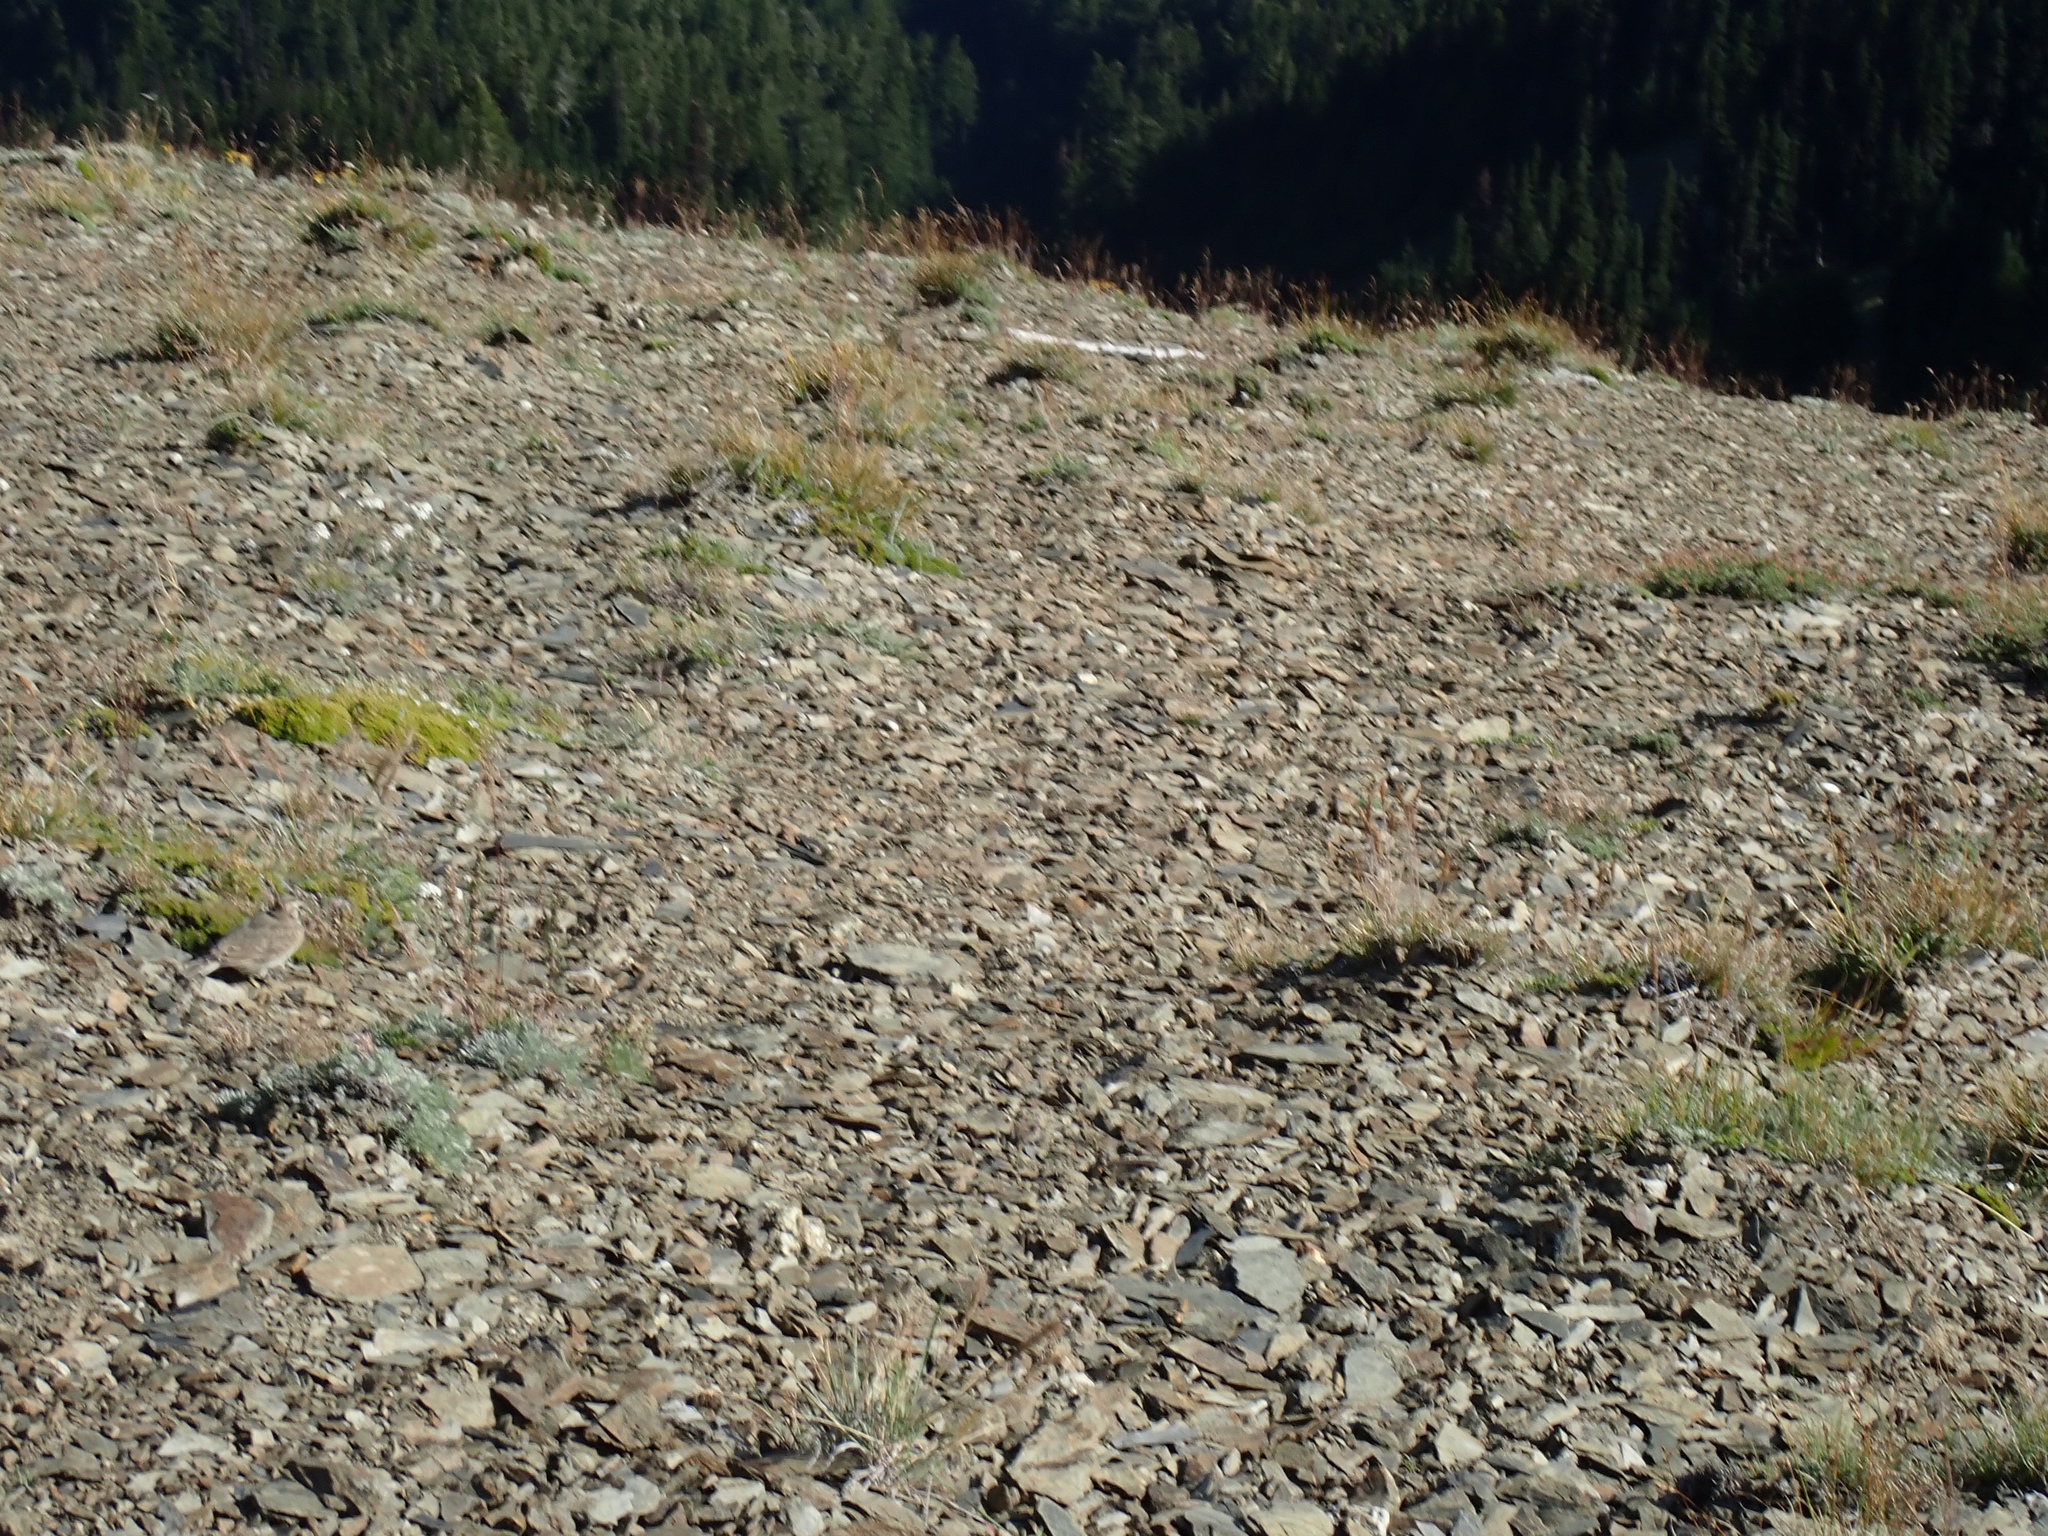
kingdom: Animalia
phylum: Chordata
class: Aves
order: Passeriformes
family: Alaudidae
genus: Eremophila
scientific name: Eremophila alpestris
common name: Horned lark
